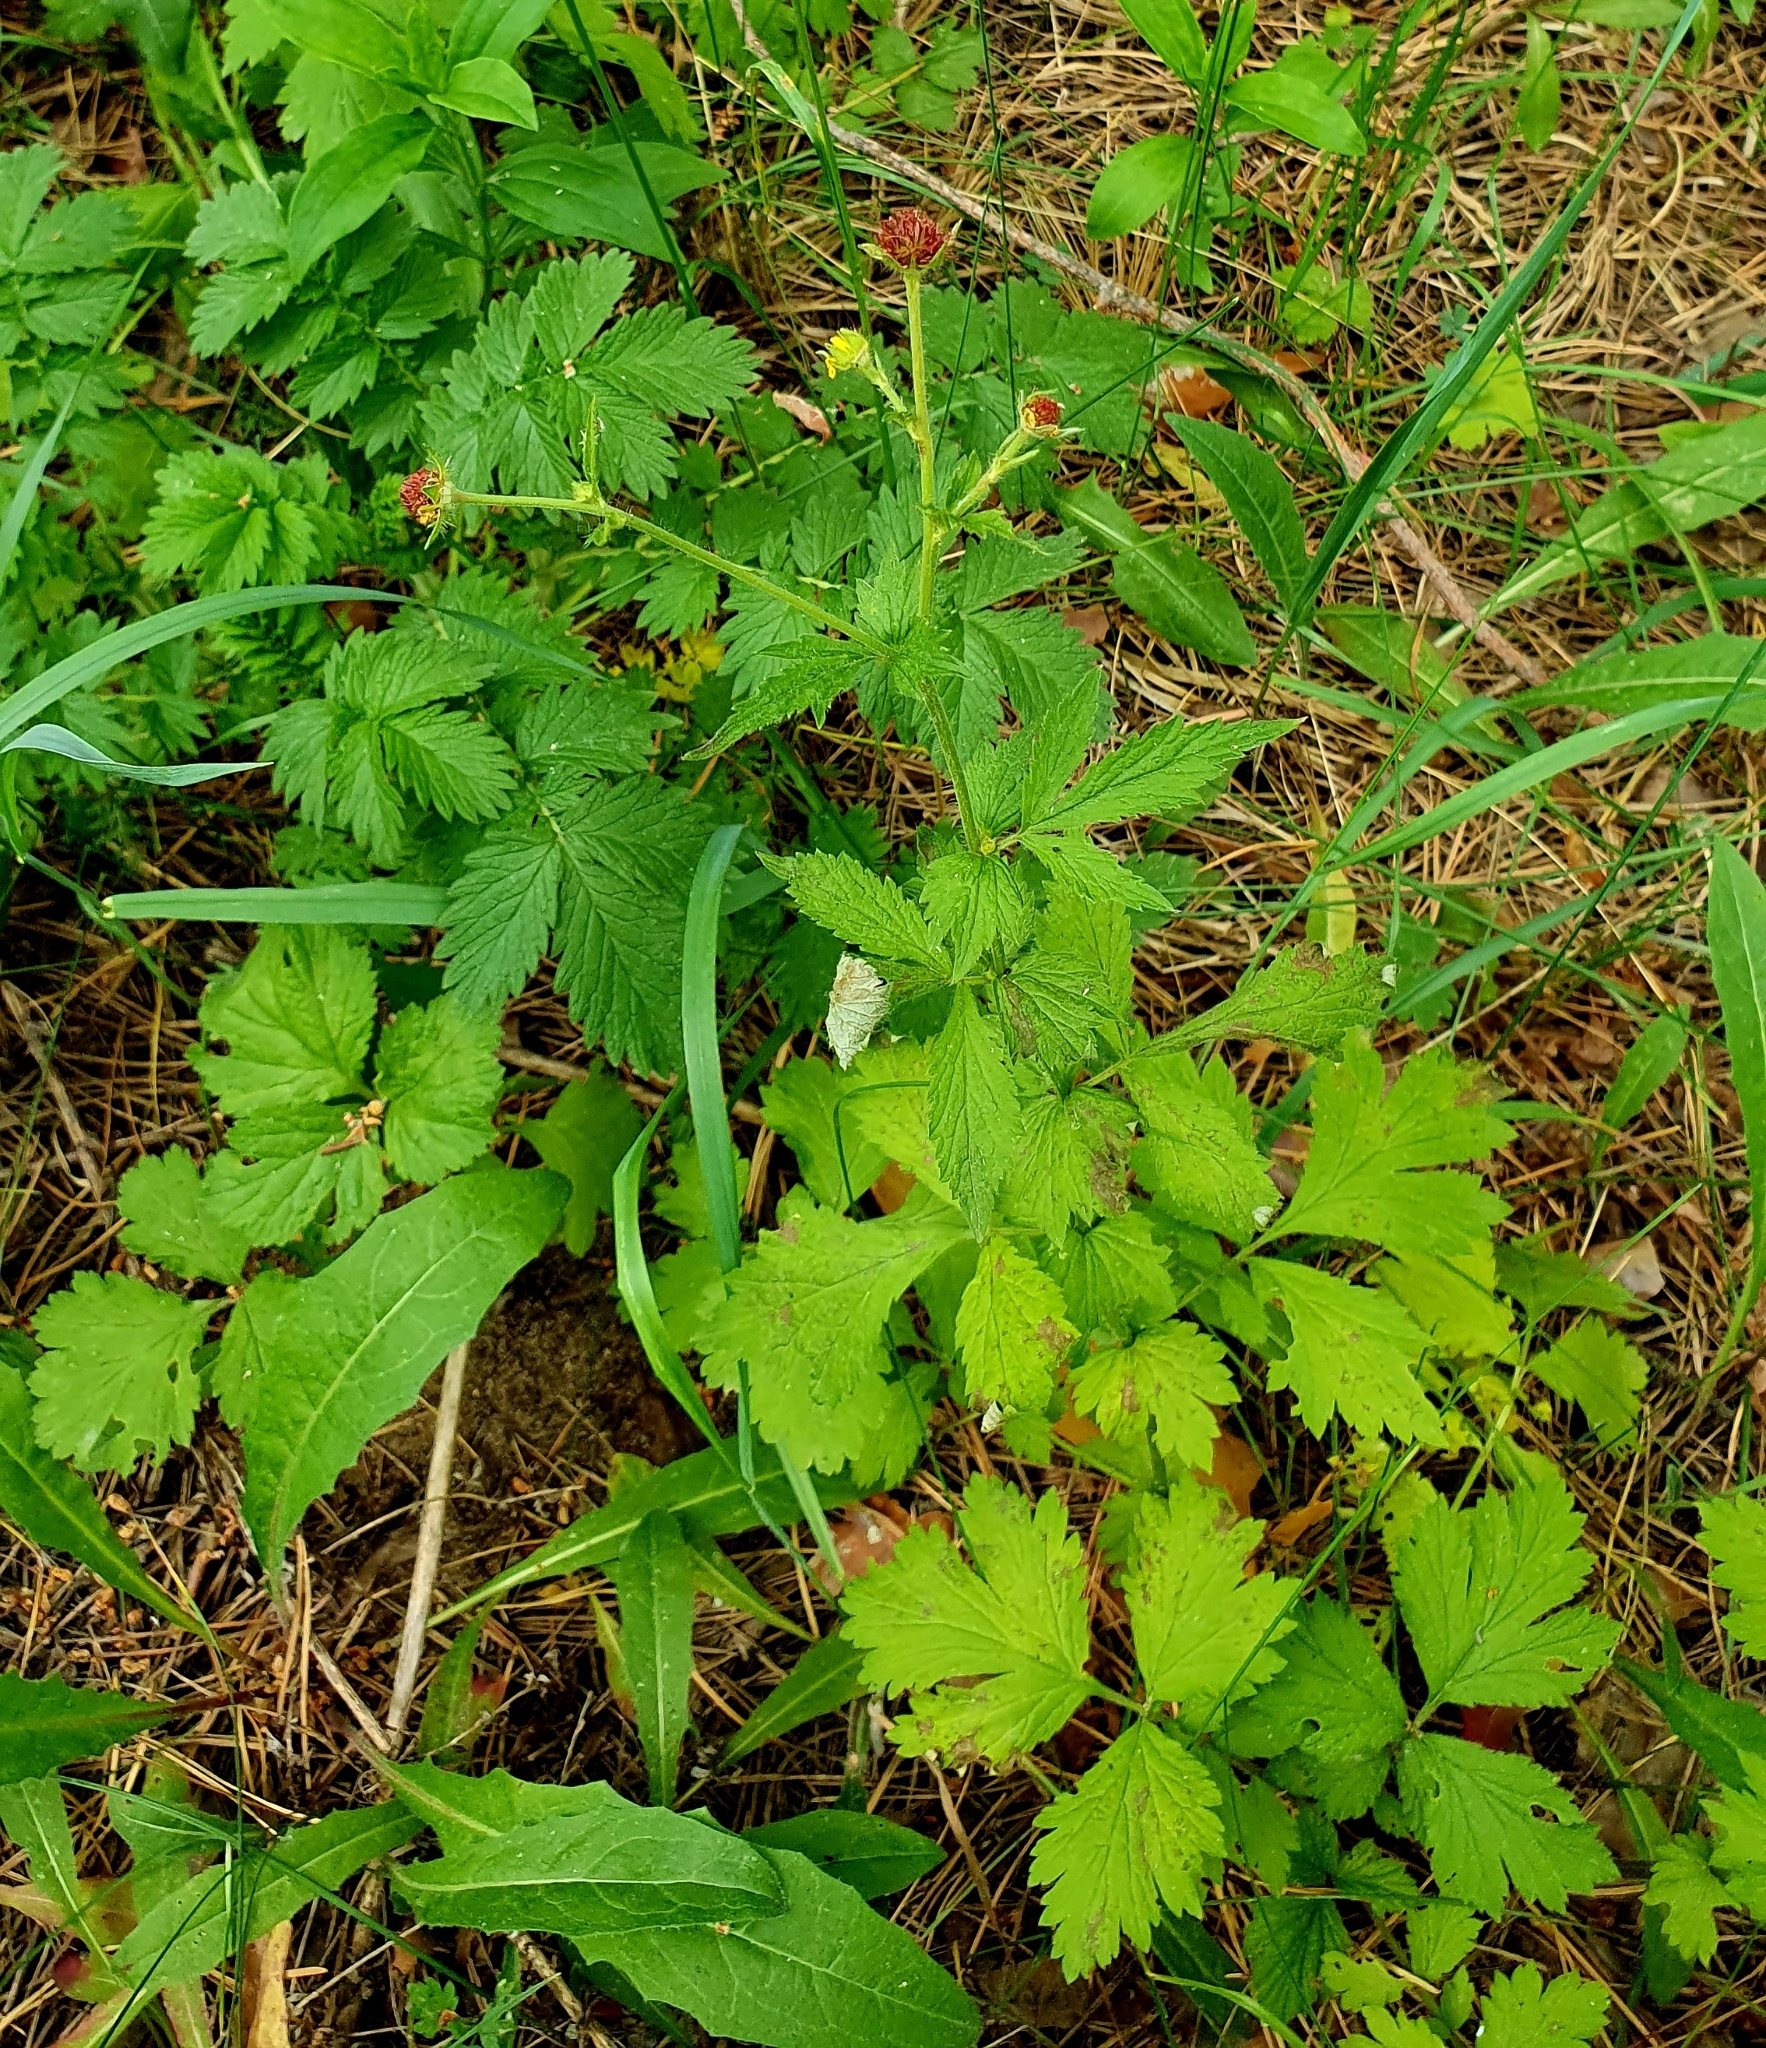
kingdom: Plantae
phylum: Tracheophyta
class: Magnoliopsida
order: Rosales
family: Rosaceae
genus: Geum
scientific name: Geum urbanum
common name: Wood avens
